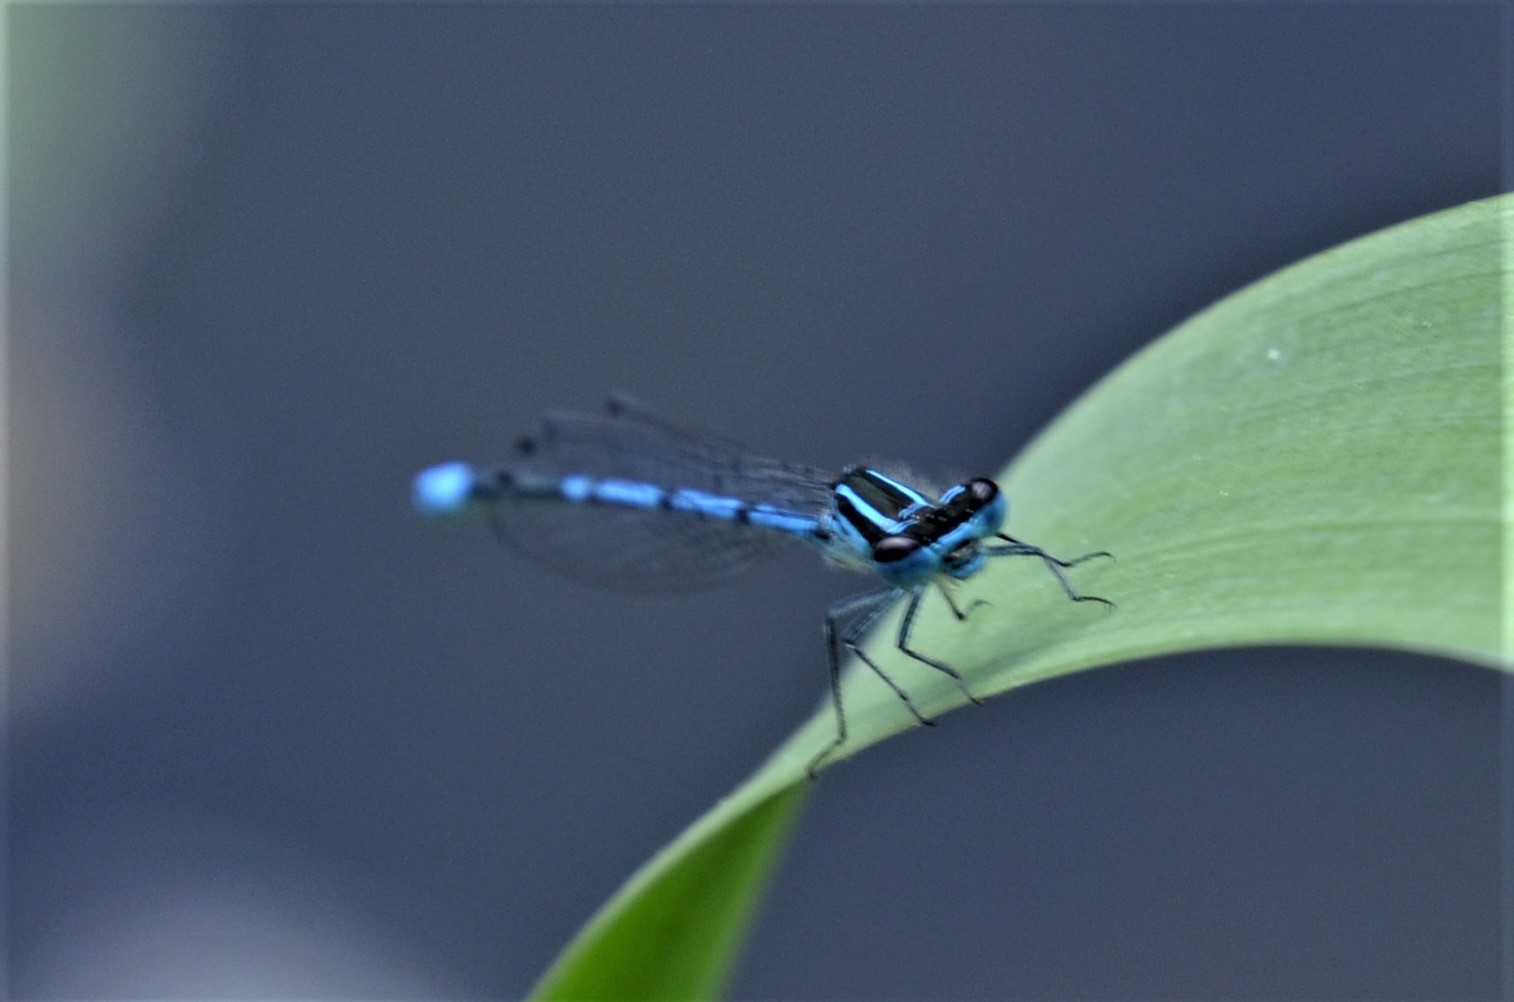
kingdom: Animalia
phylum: Arthropoda
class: Insecta
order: Odonata
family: Coenagrionidae
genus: Coenagrion
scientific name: Coenagrion puella
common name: Azure damselfly
